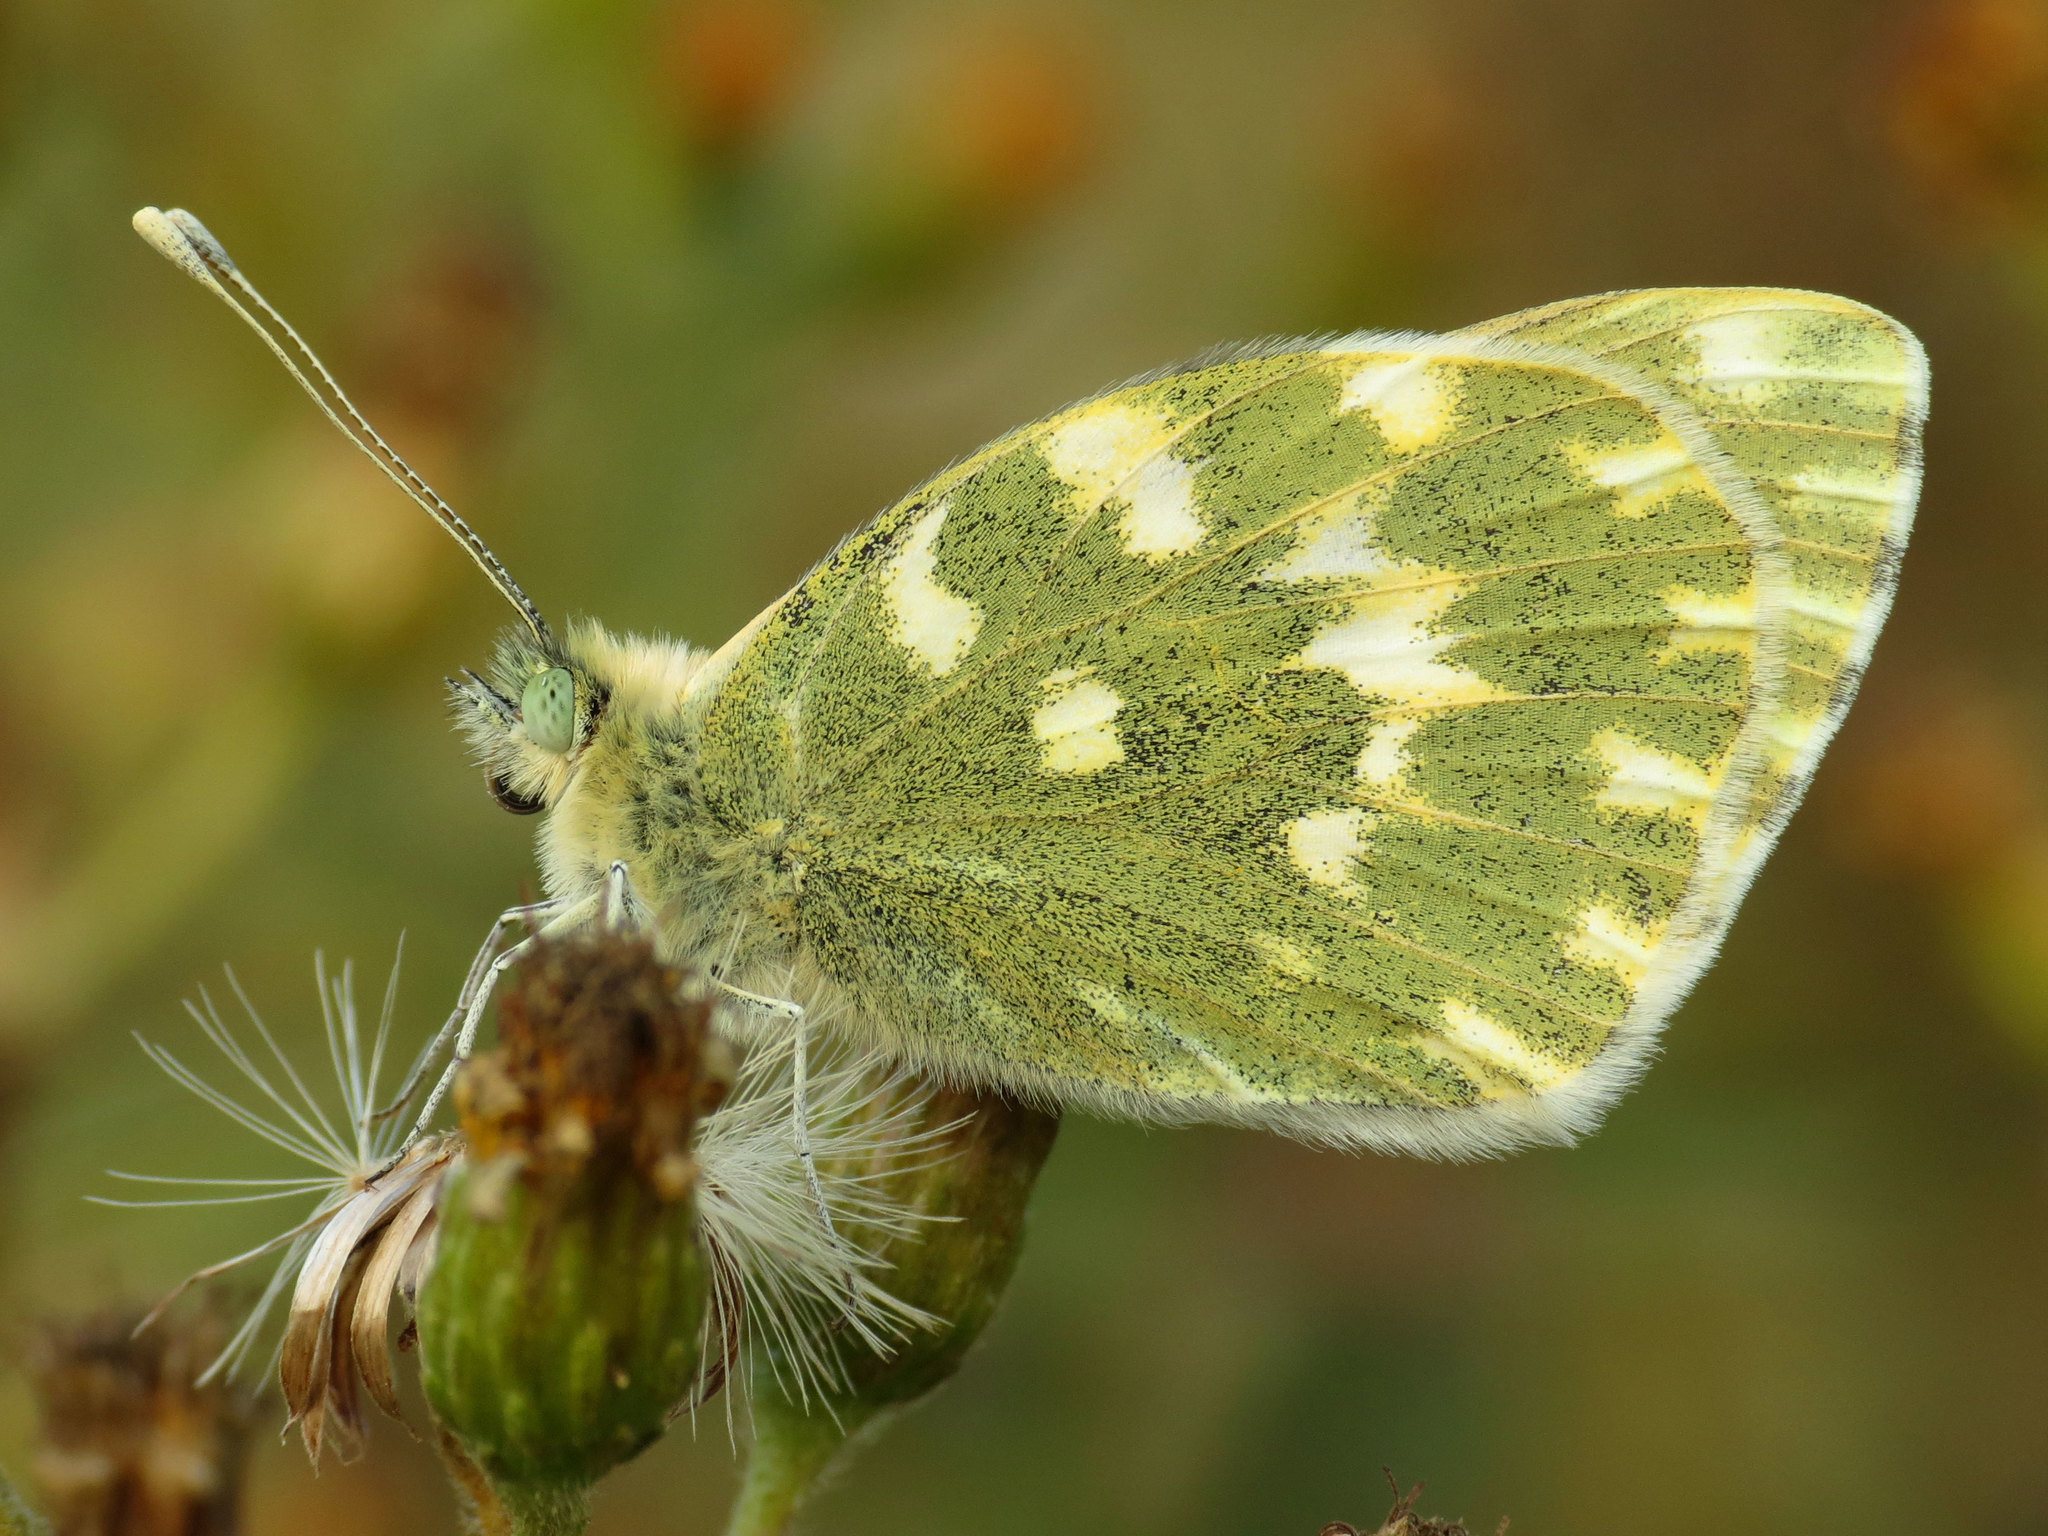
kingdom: Animalia
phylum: Arthropoda
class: Insecta
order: Lepidoptera
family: Pieridae
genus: Pontia
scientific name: Pontia daplidice
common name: Bath white
